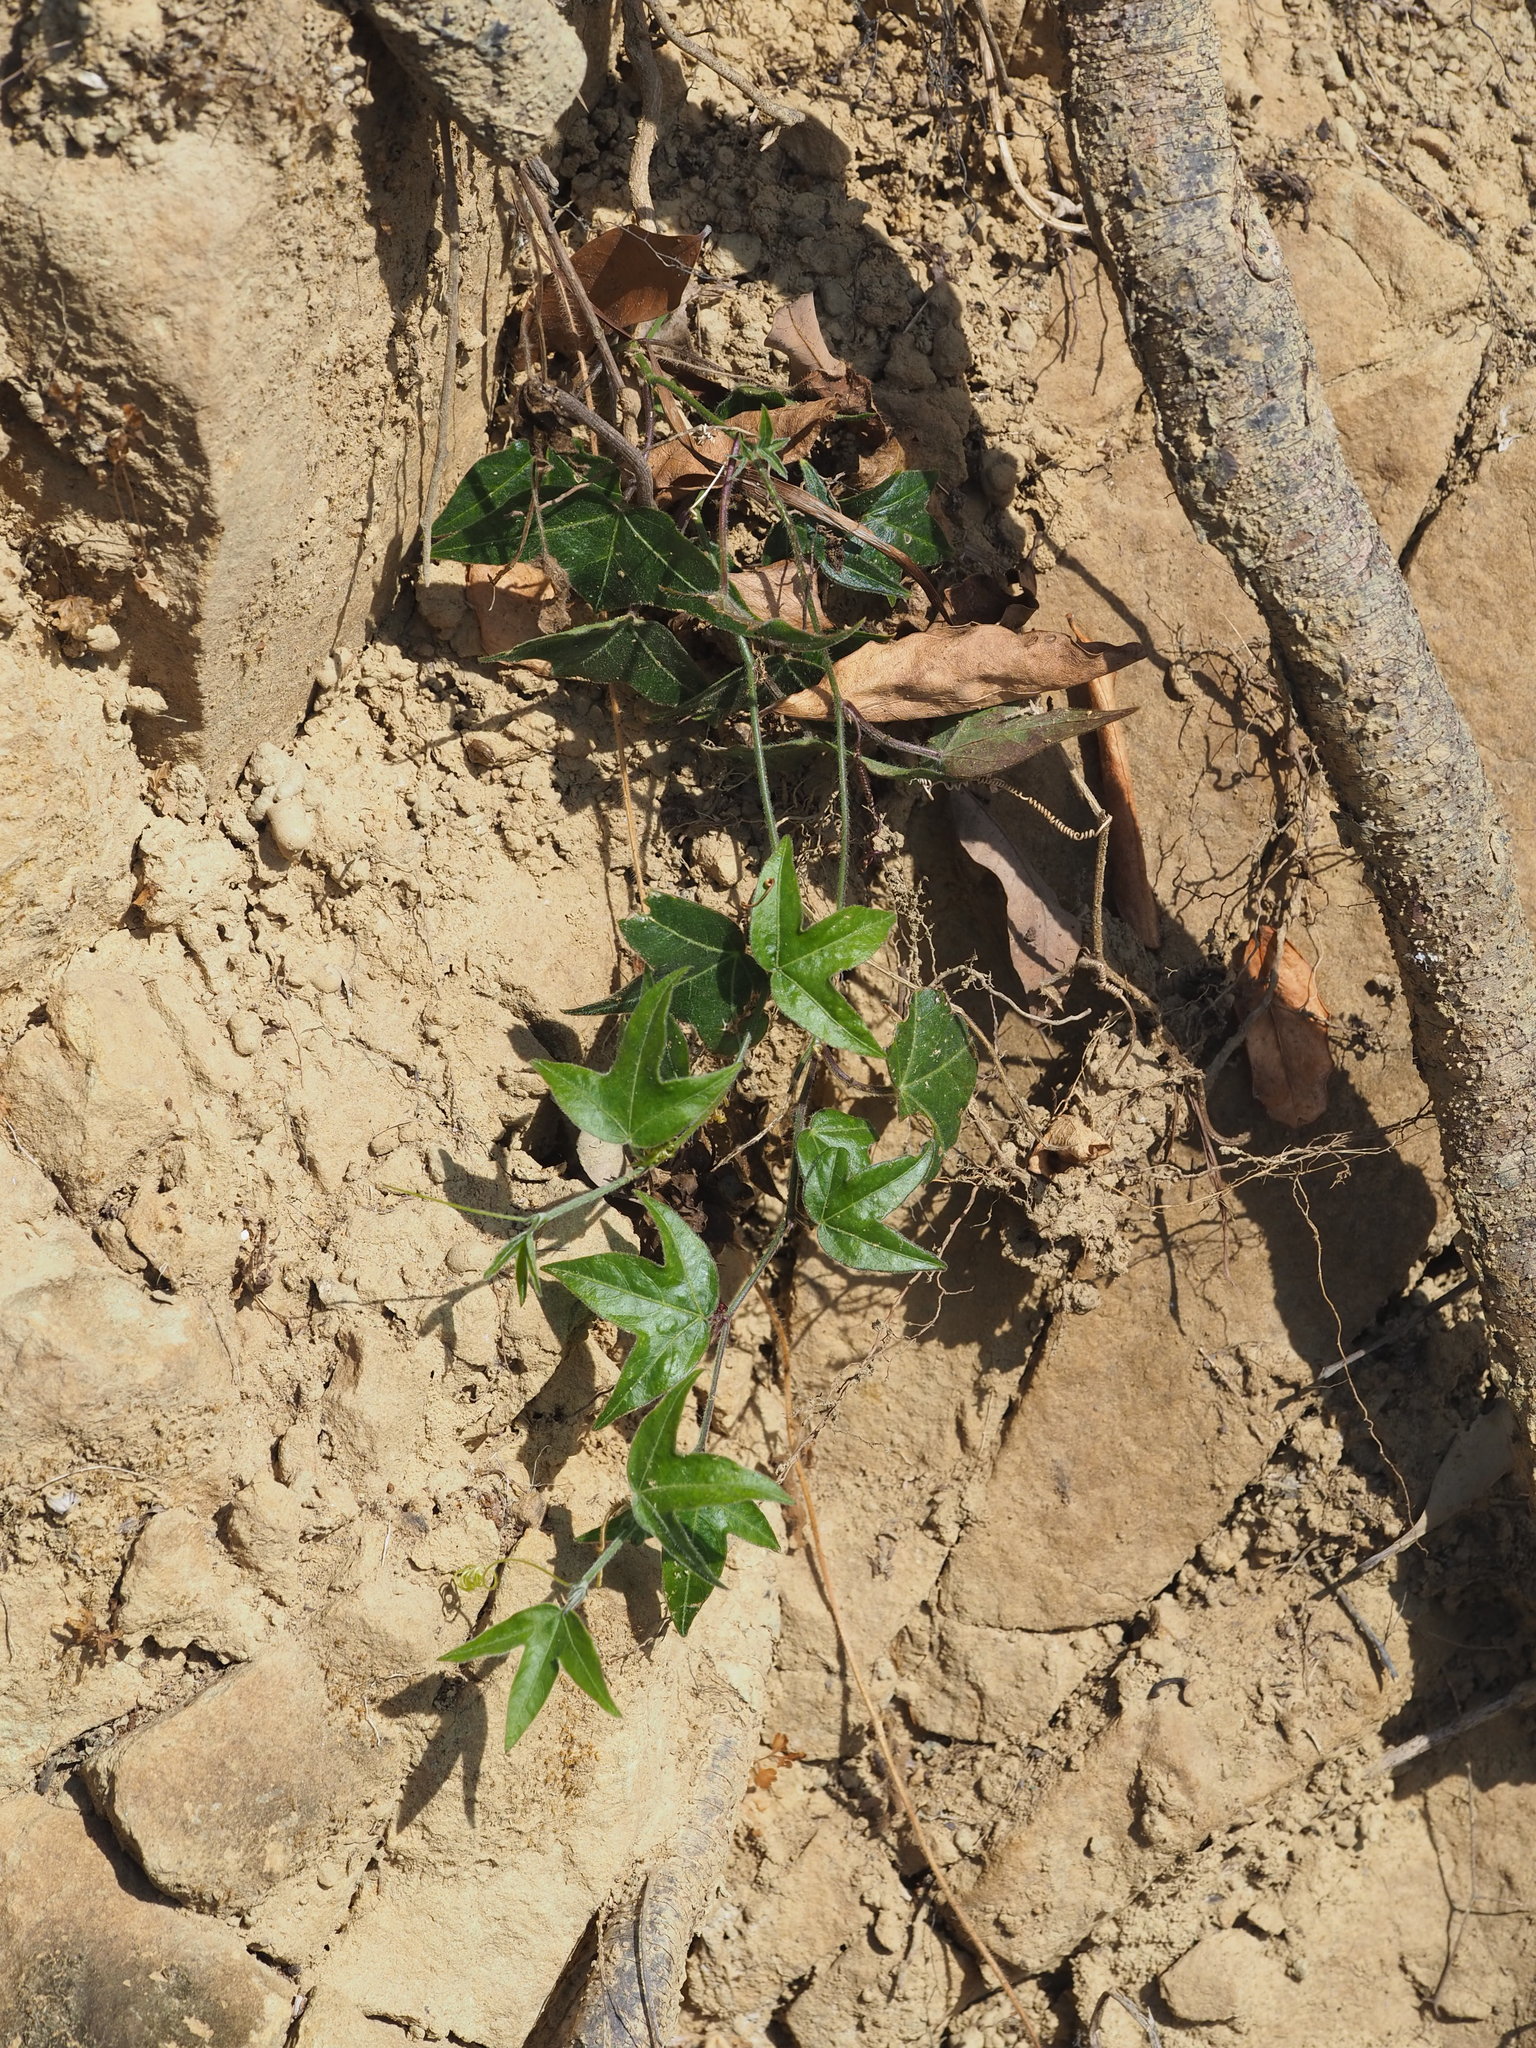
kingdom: Plantae
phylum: Tracheophyta
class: Magnoliopsida
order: Malpighiales
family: Passifloraceae
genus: Passiflora
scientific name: Passiflora suberosa
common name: Wild passionfruit
